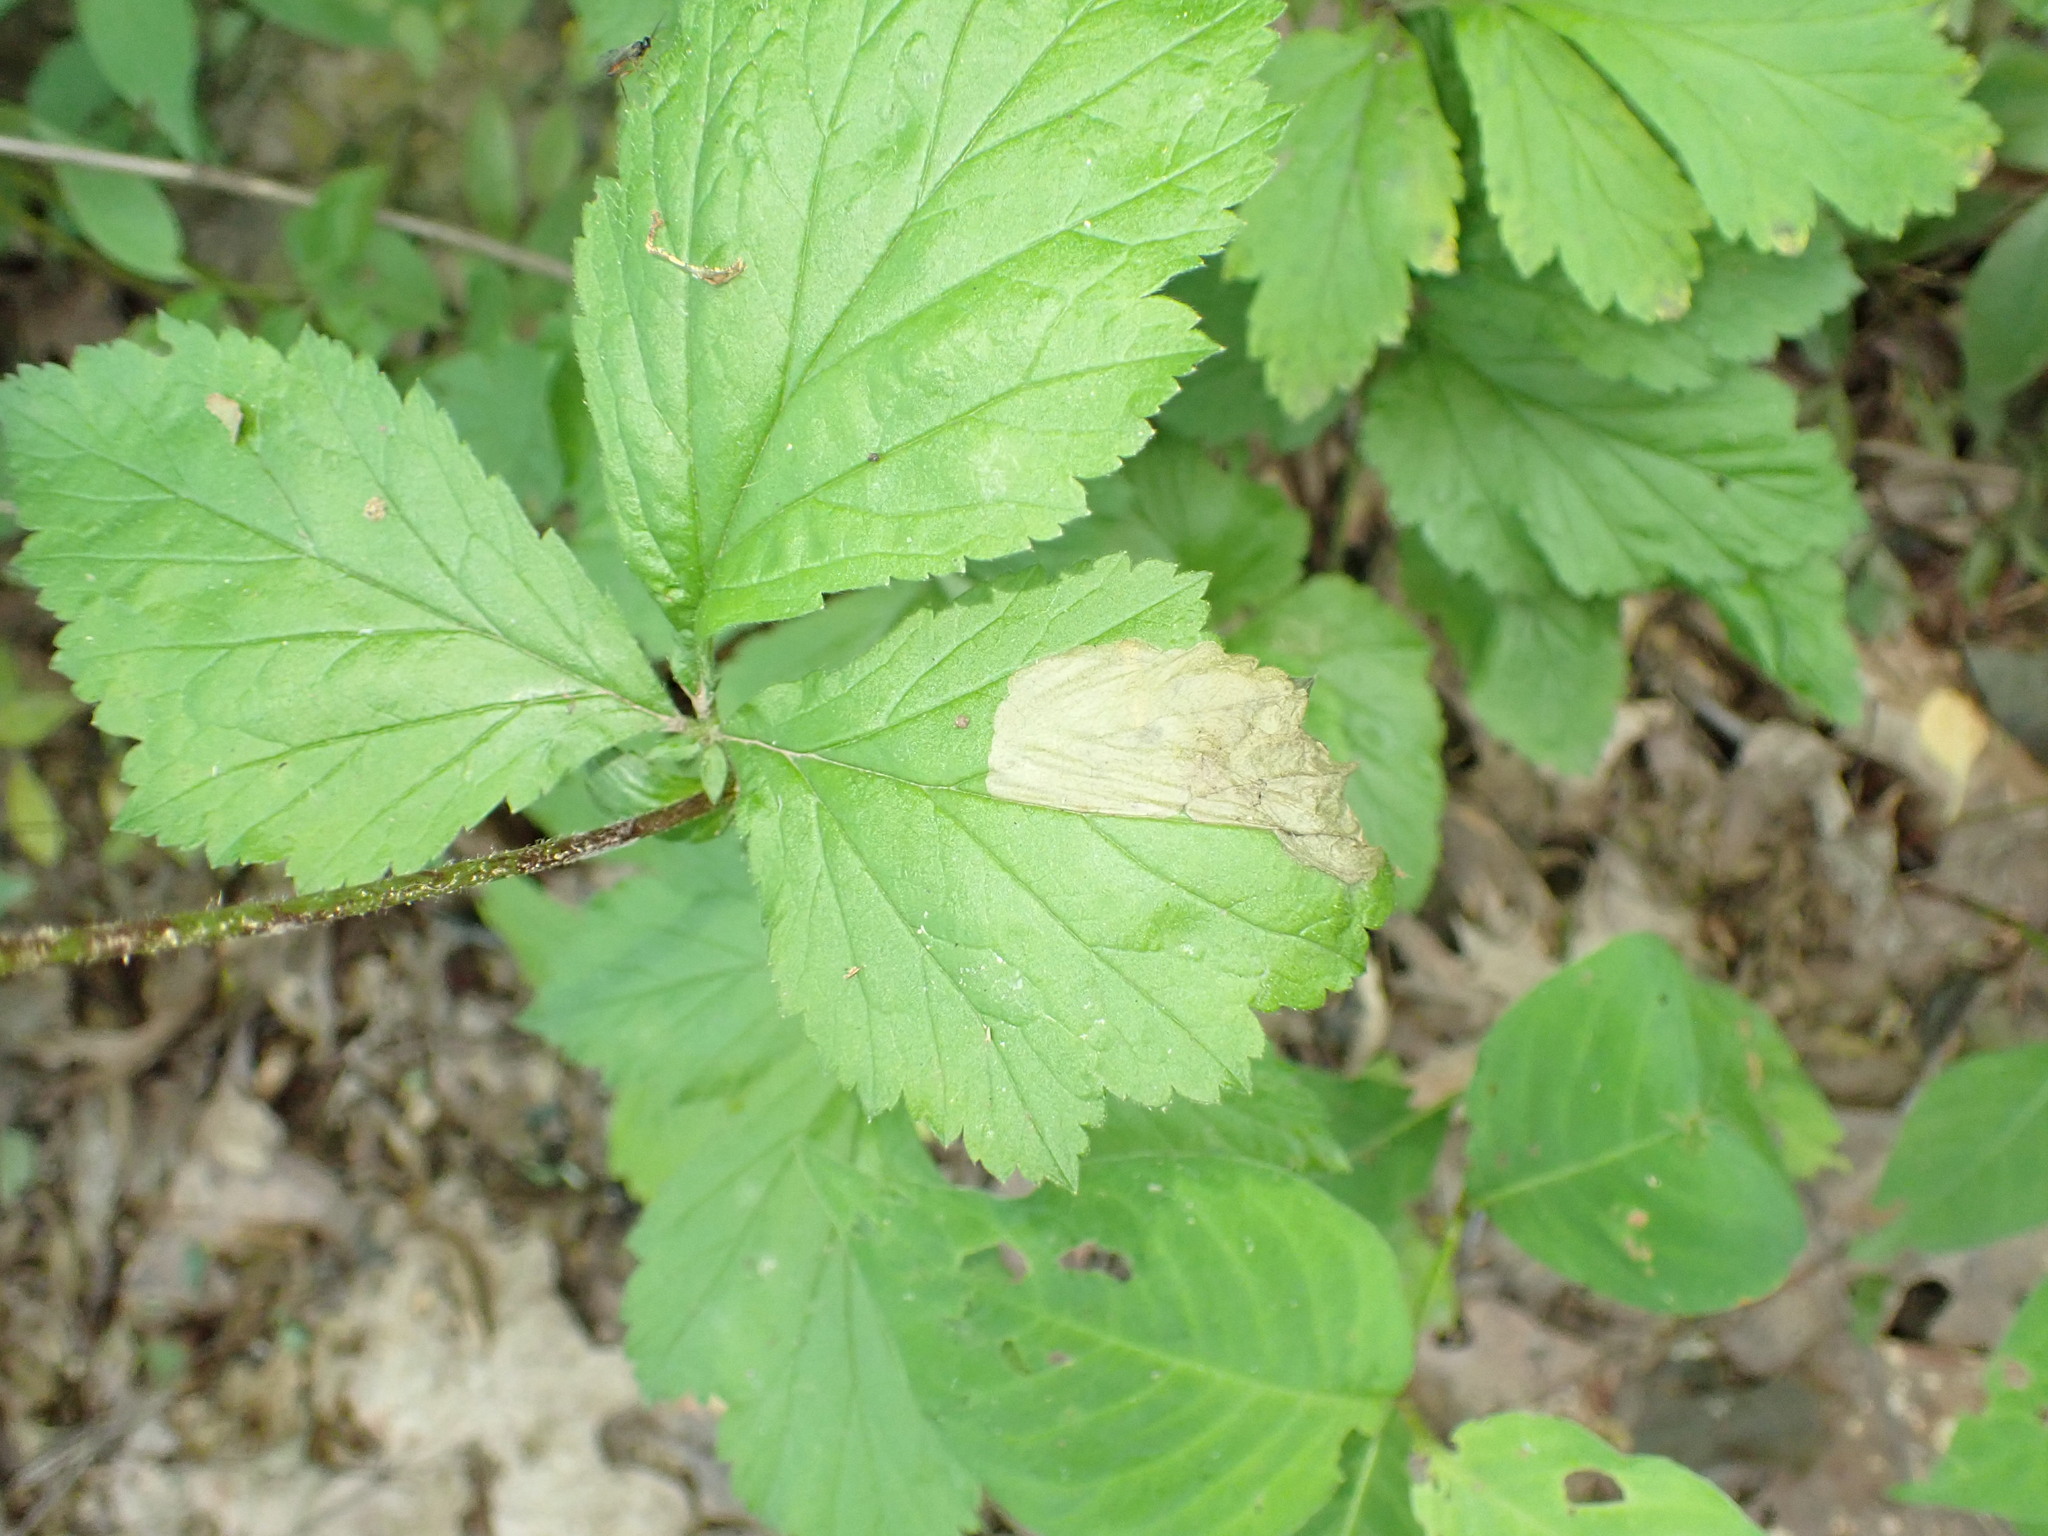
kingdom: Animalia
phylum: Arthropoda
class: Insecta
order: Hymenoptera
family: Tenthredinidae
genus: Metallus
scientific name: Metallus lanceolatus
